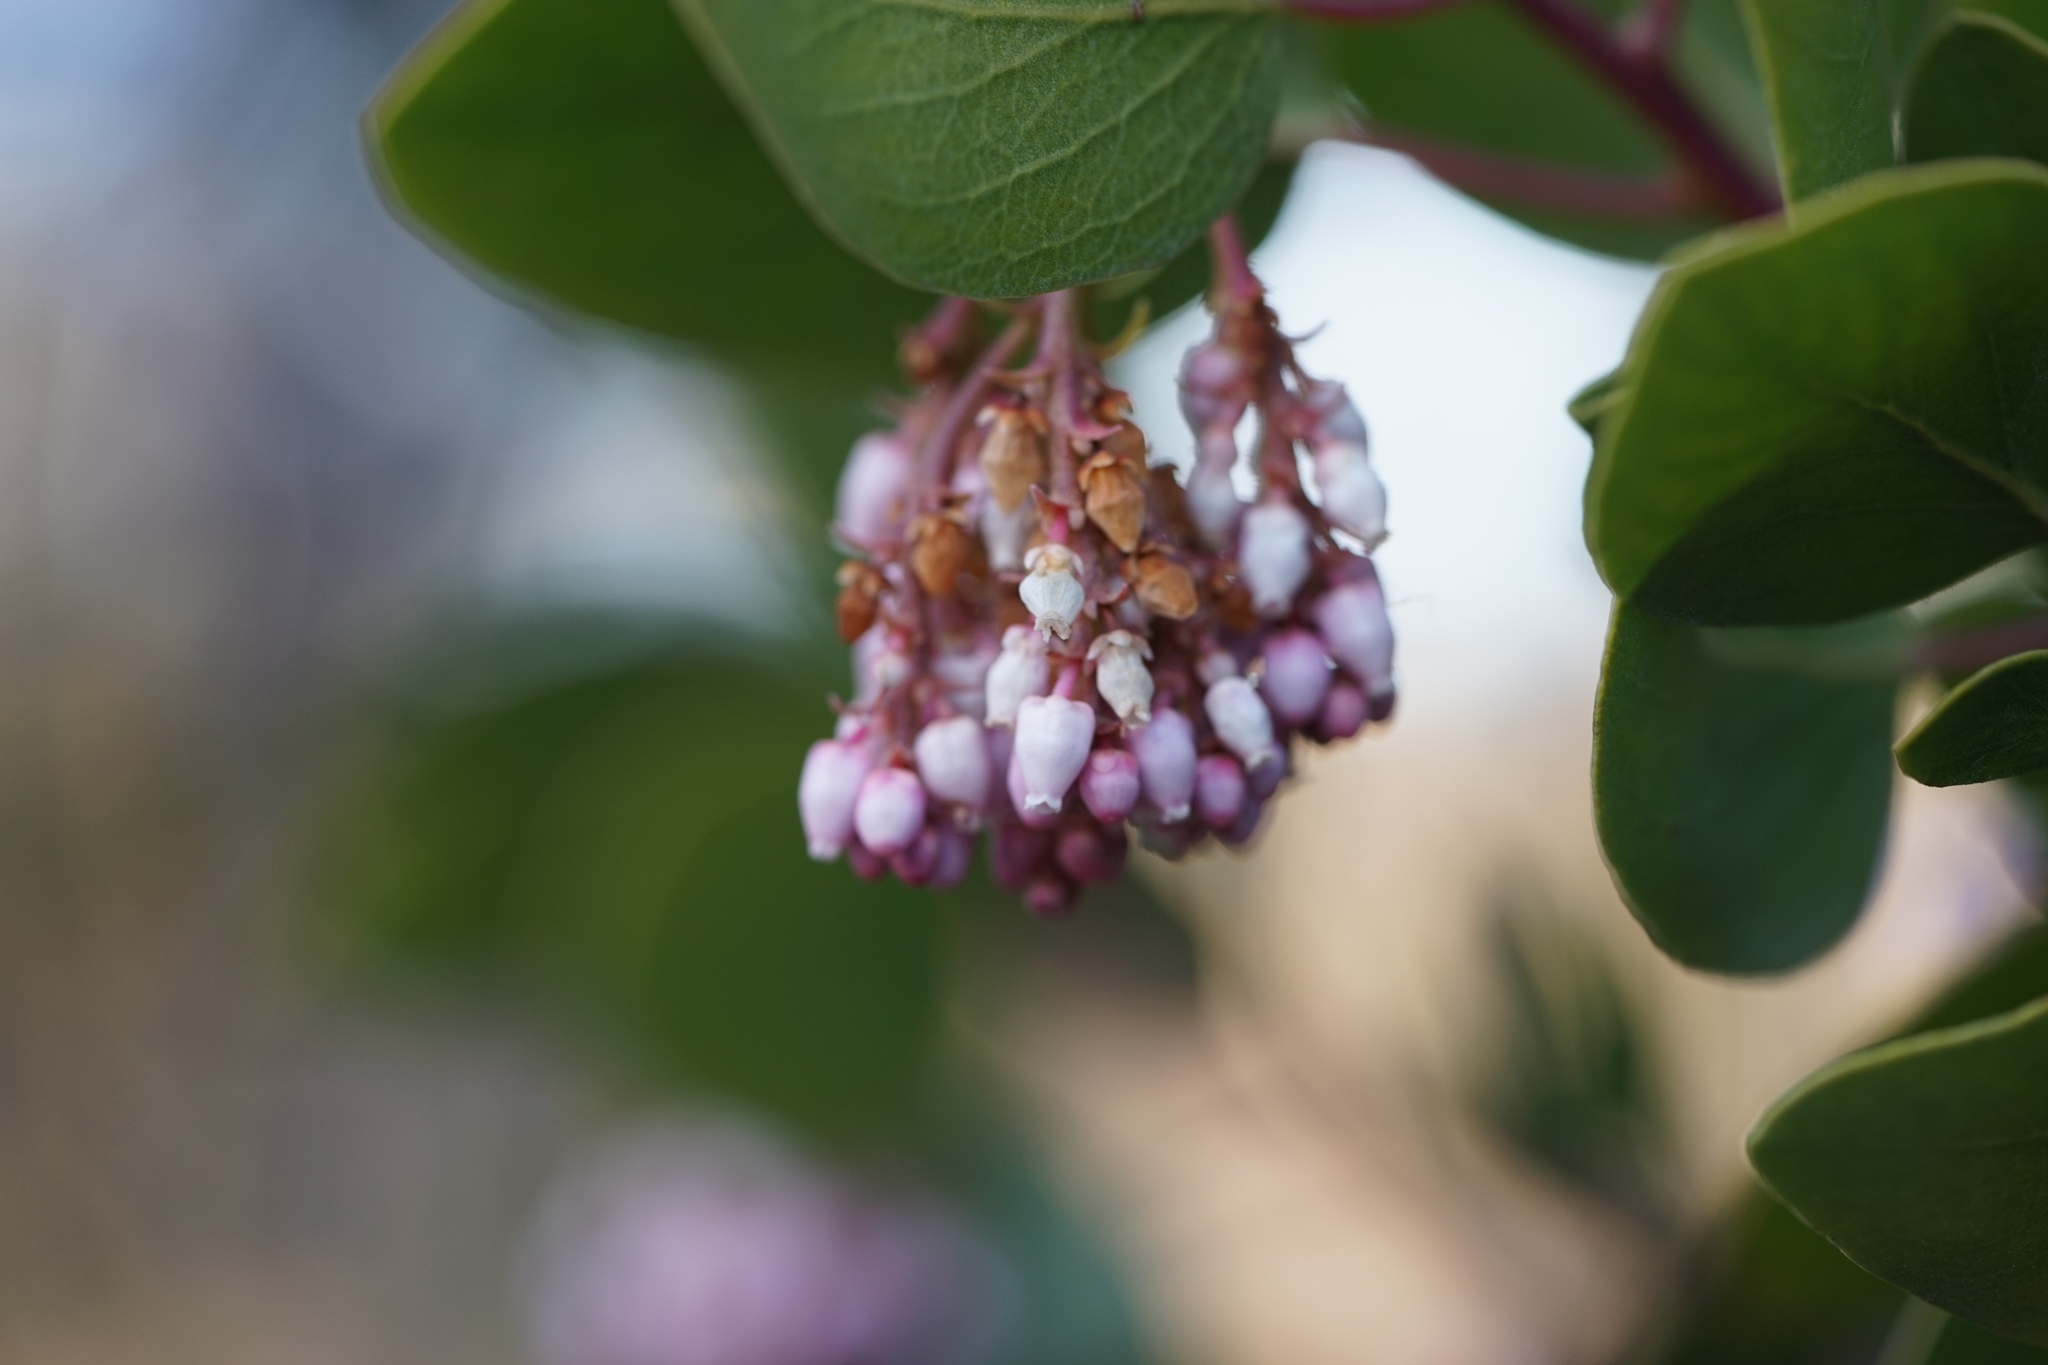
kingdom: Plantae
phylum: Tracheophyta
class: Magnoliopsida
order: Ericales
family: Ericaceae
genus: Arctostaphylos
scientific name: Arctostaphylos patula
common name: Green-leaf manzanita
